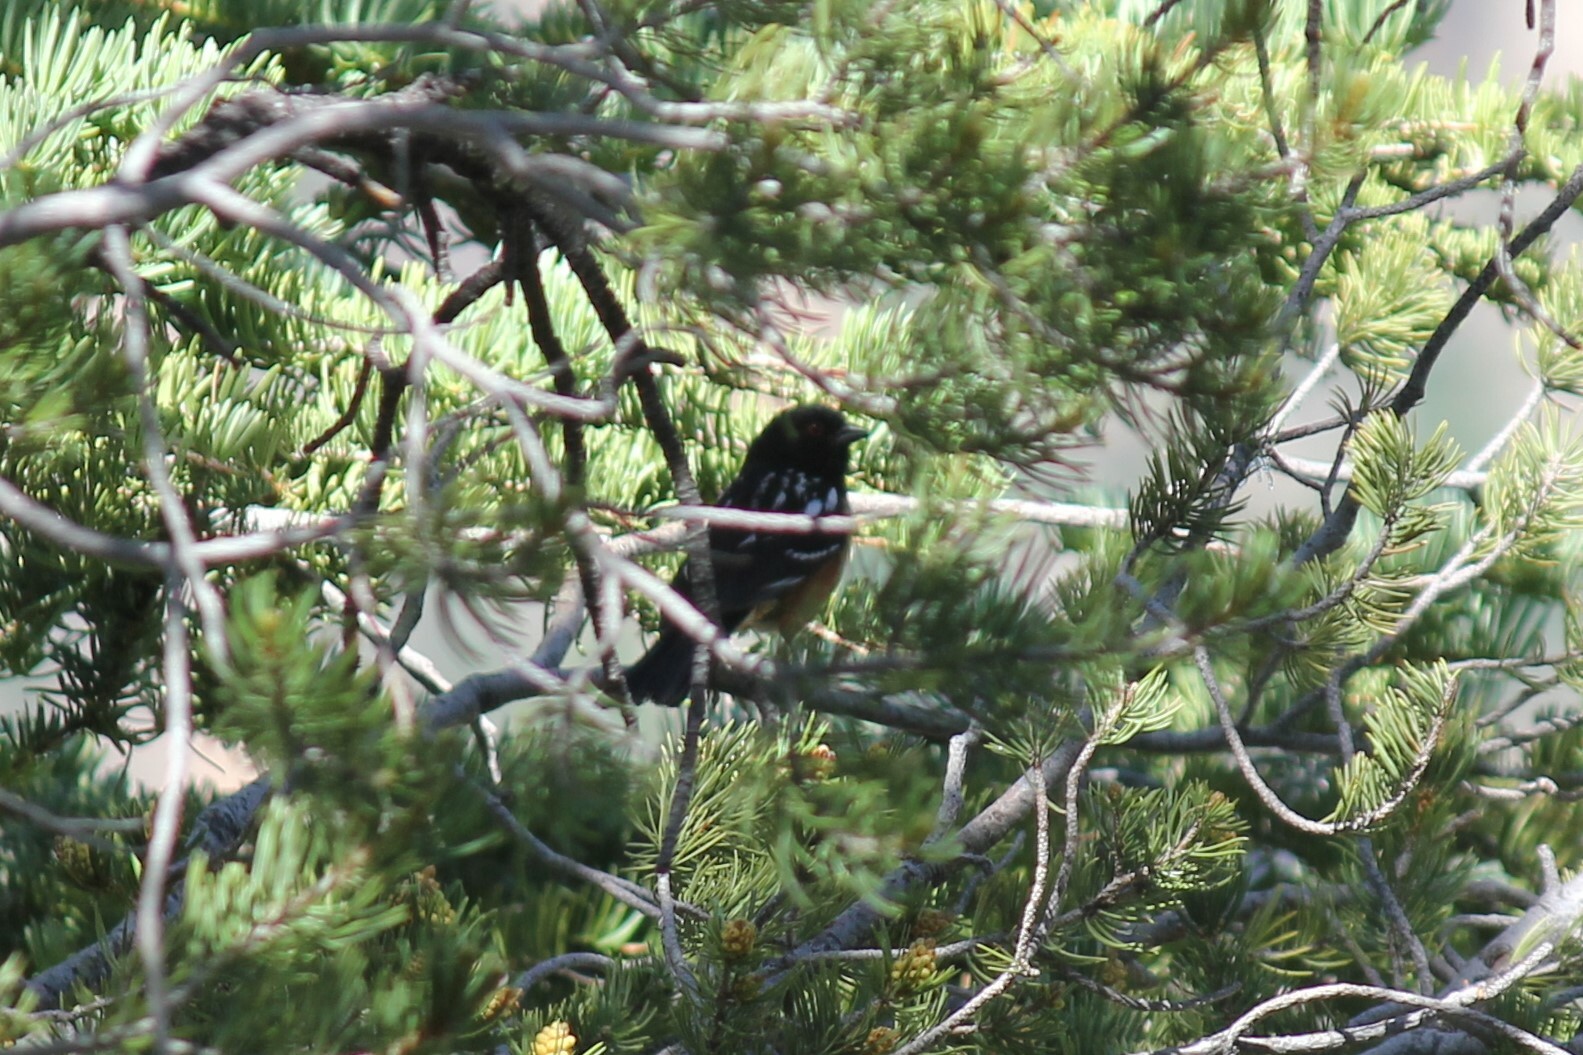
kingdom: Animalia
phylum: Chordata
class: Aves
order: Passeriformes
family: Passerellidae
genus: Pipilo
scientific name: Pipilo maculatus
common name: Spotted towhee
